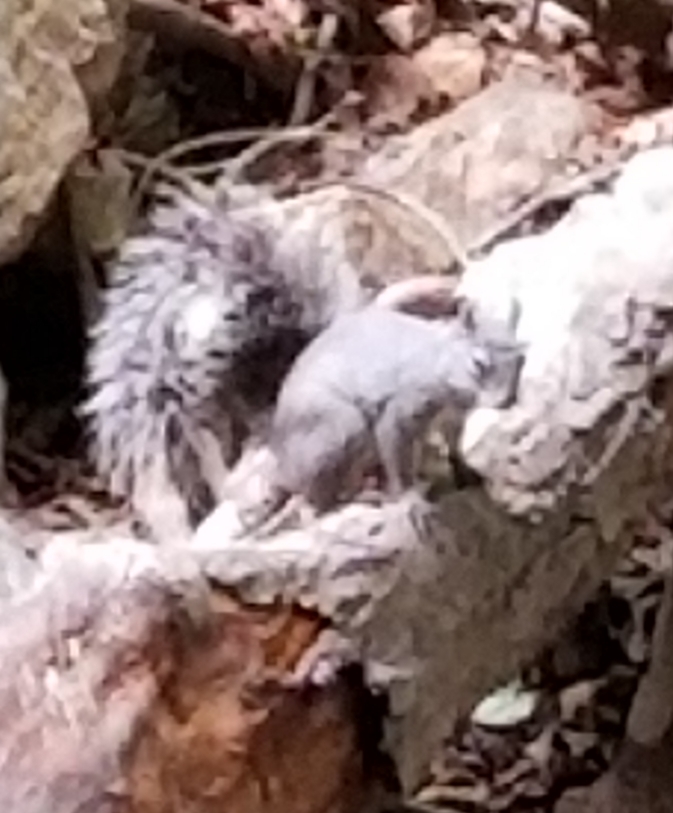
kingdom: Animalia
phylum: Chordata
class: Mammalia
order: Rodentia
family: Sciuridae
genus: Sciurus
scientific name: Sciurus griseus
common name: Western gray squirrel
